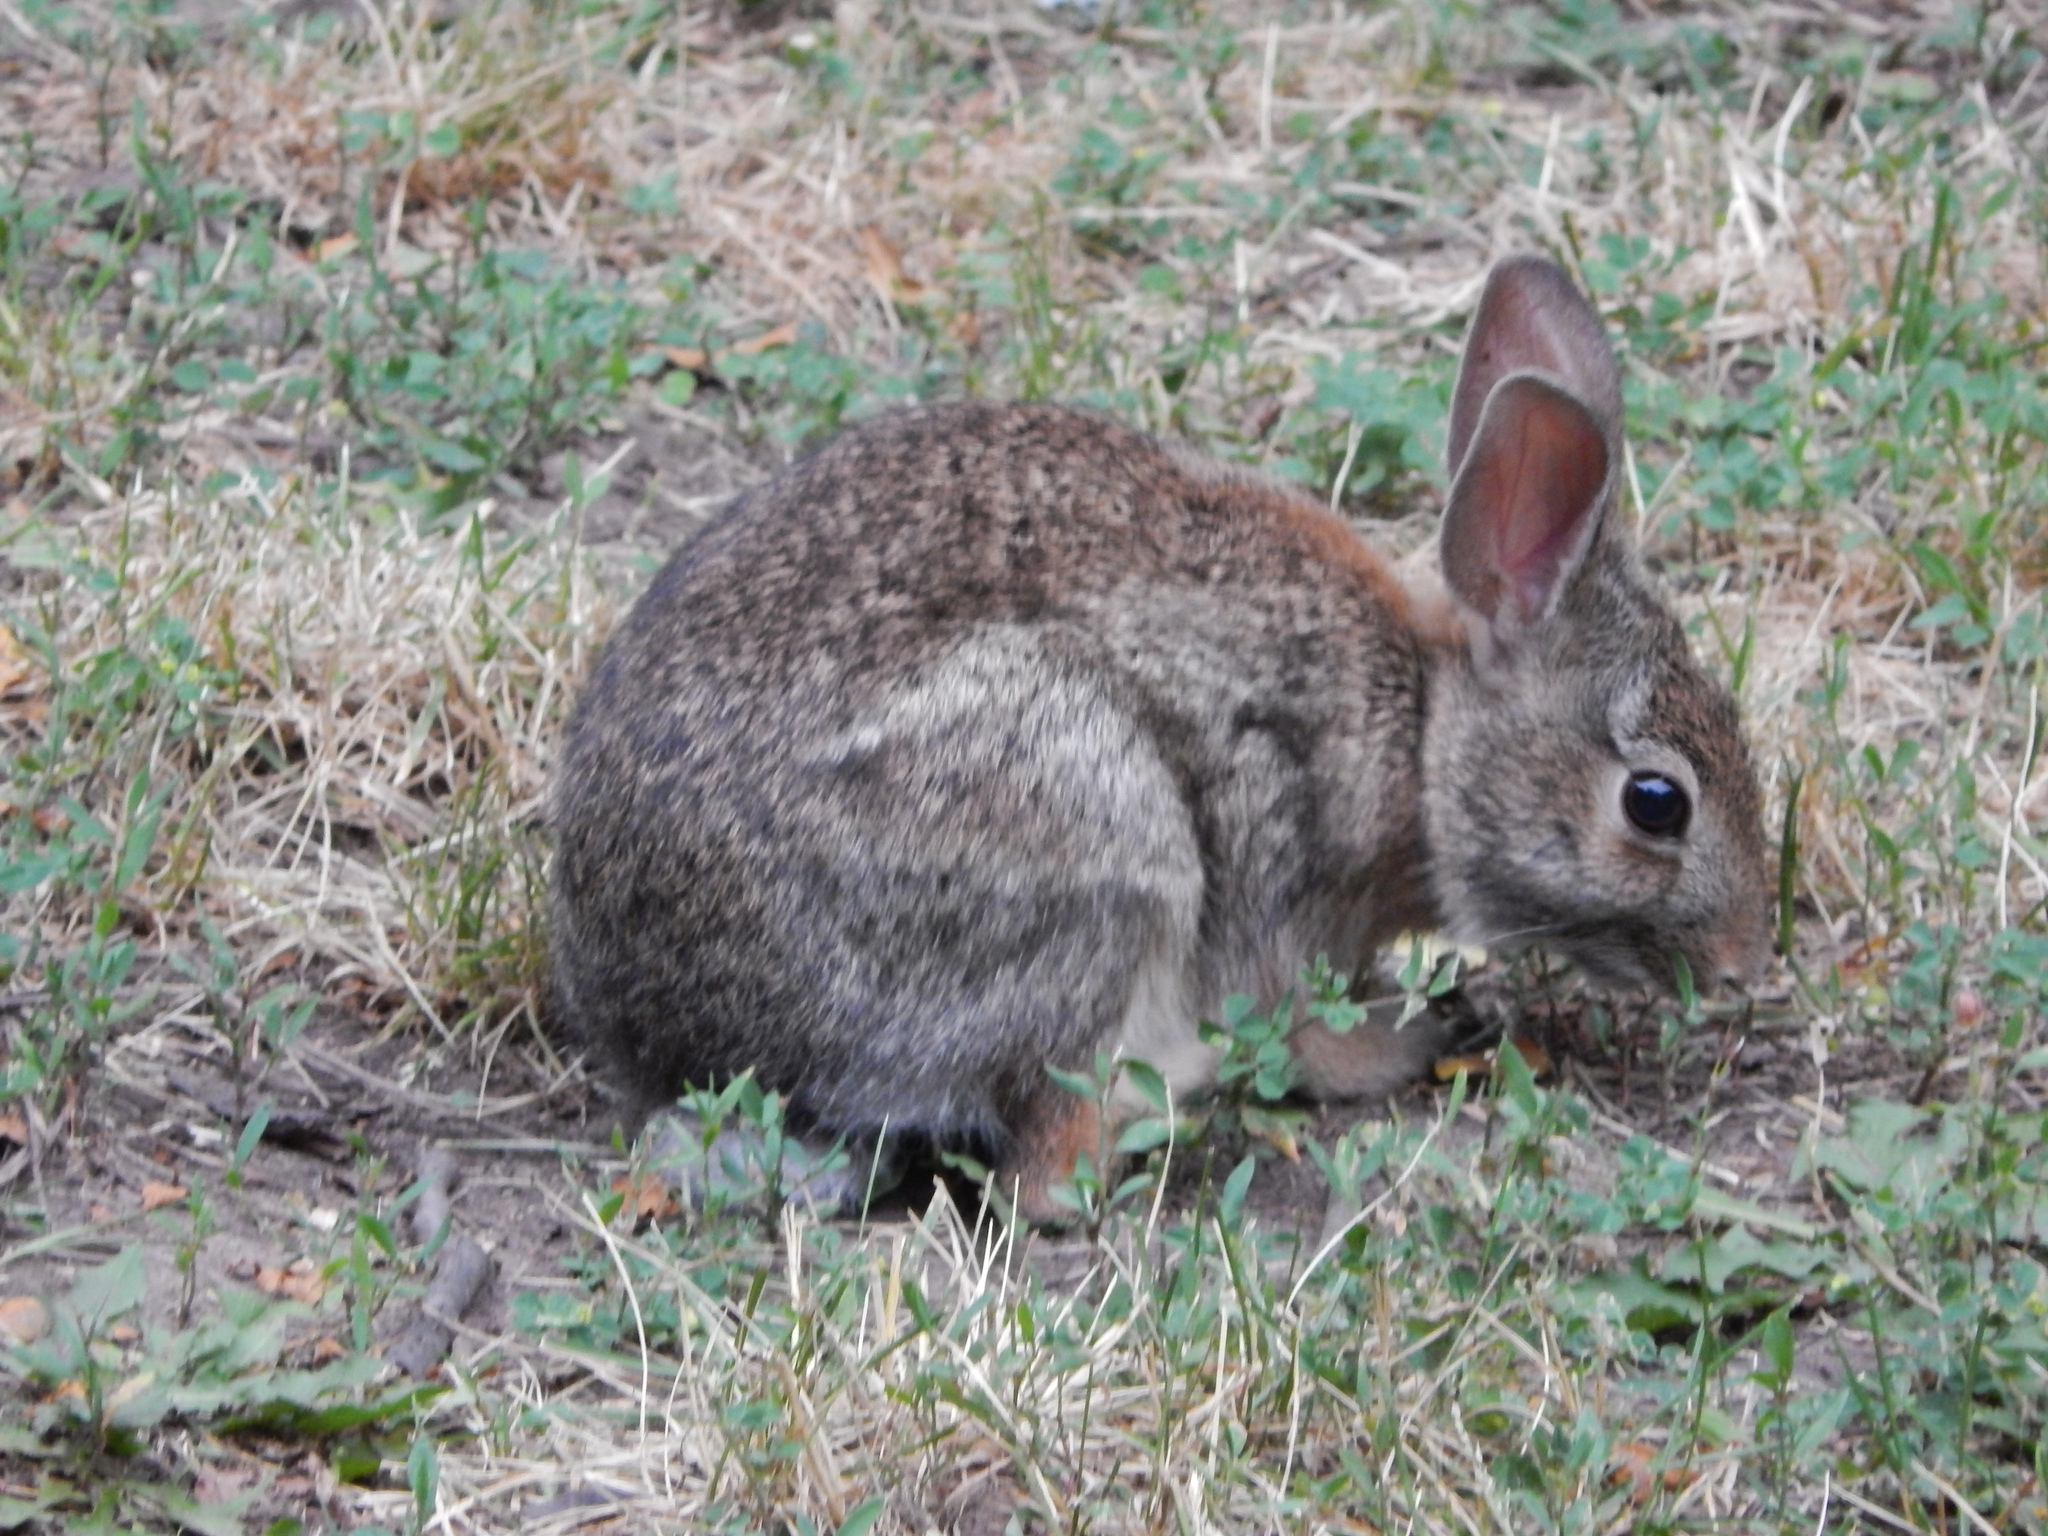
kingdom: Animalia
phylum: Chordata
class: Mammalia
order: Lagomorpha
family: Leporidae
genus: Sylvilagus
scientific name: Sylvilagus floridanus
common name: Eastern cottontail
